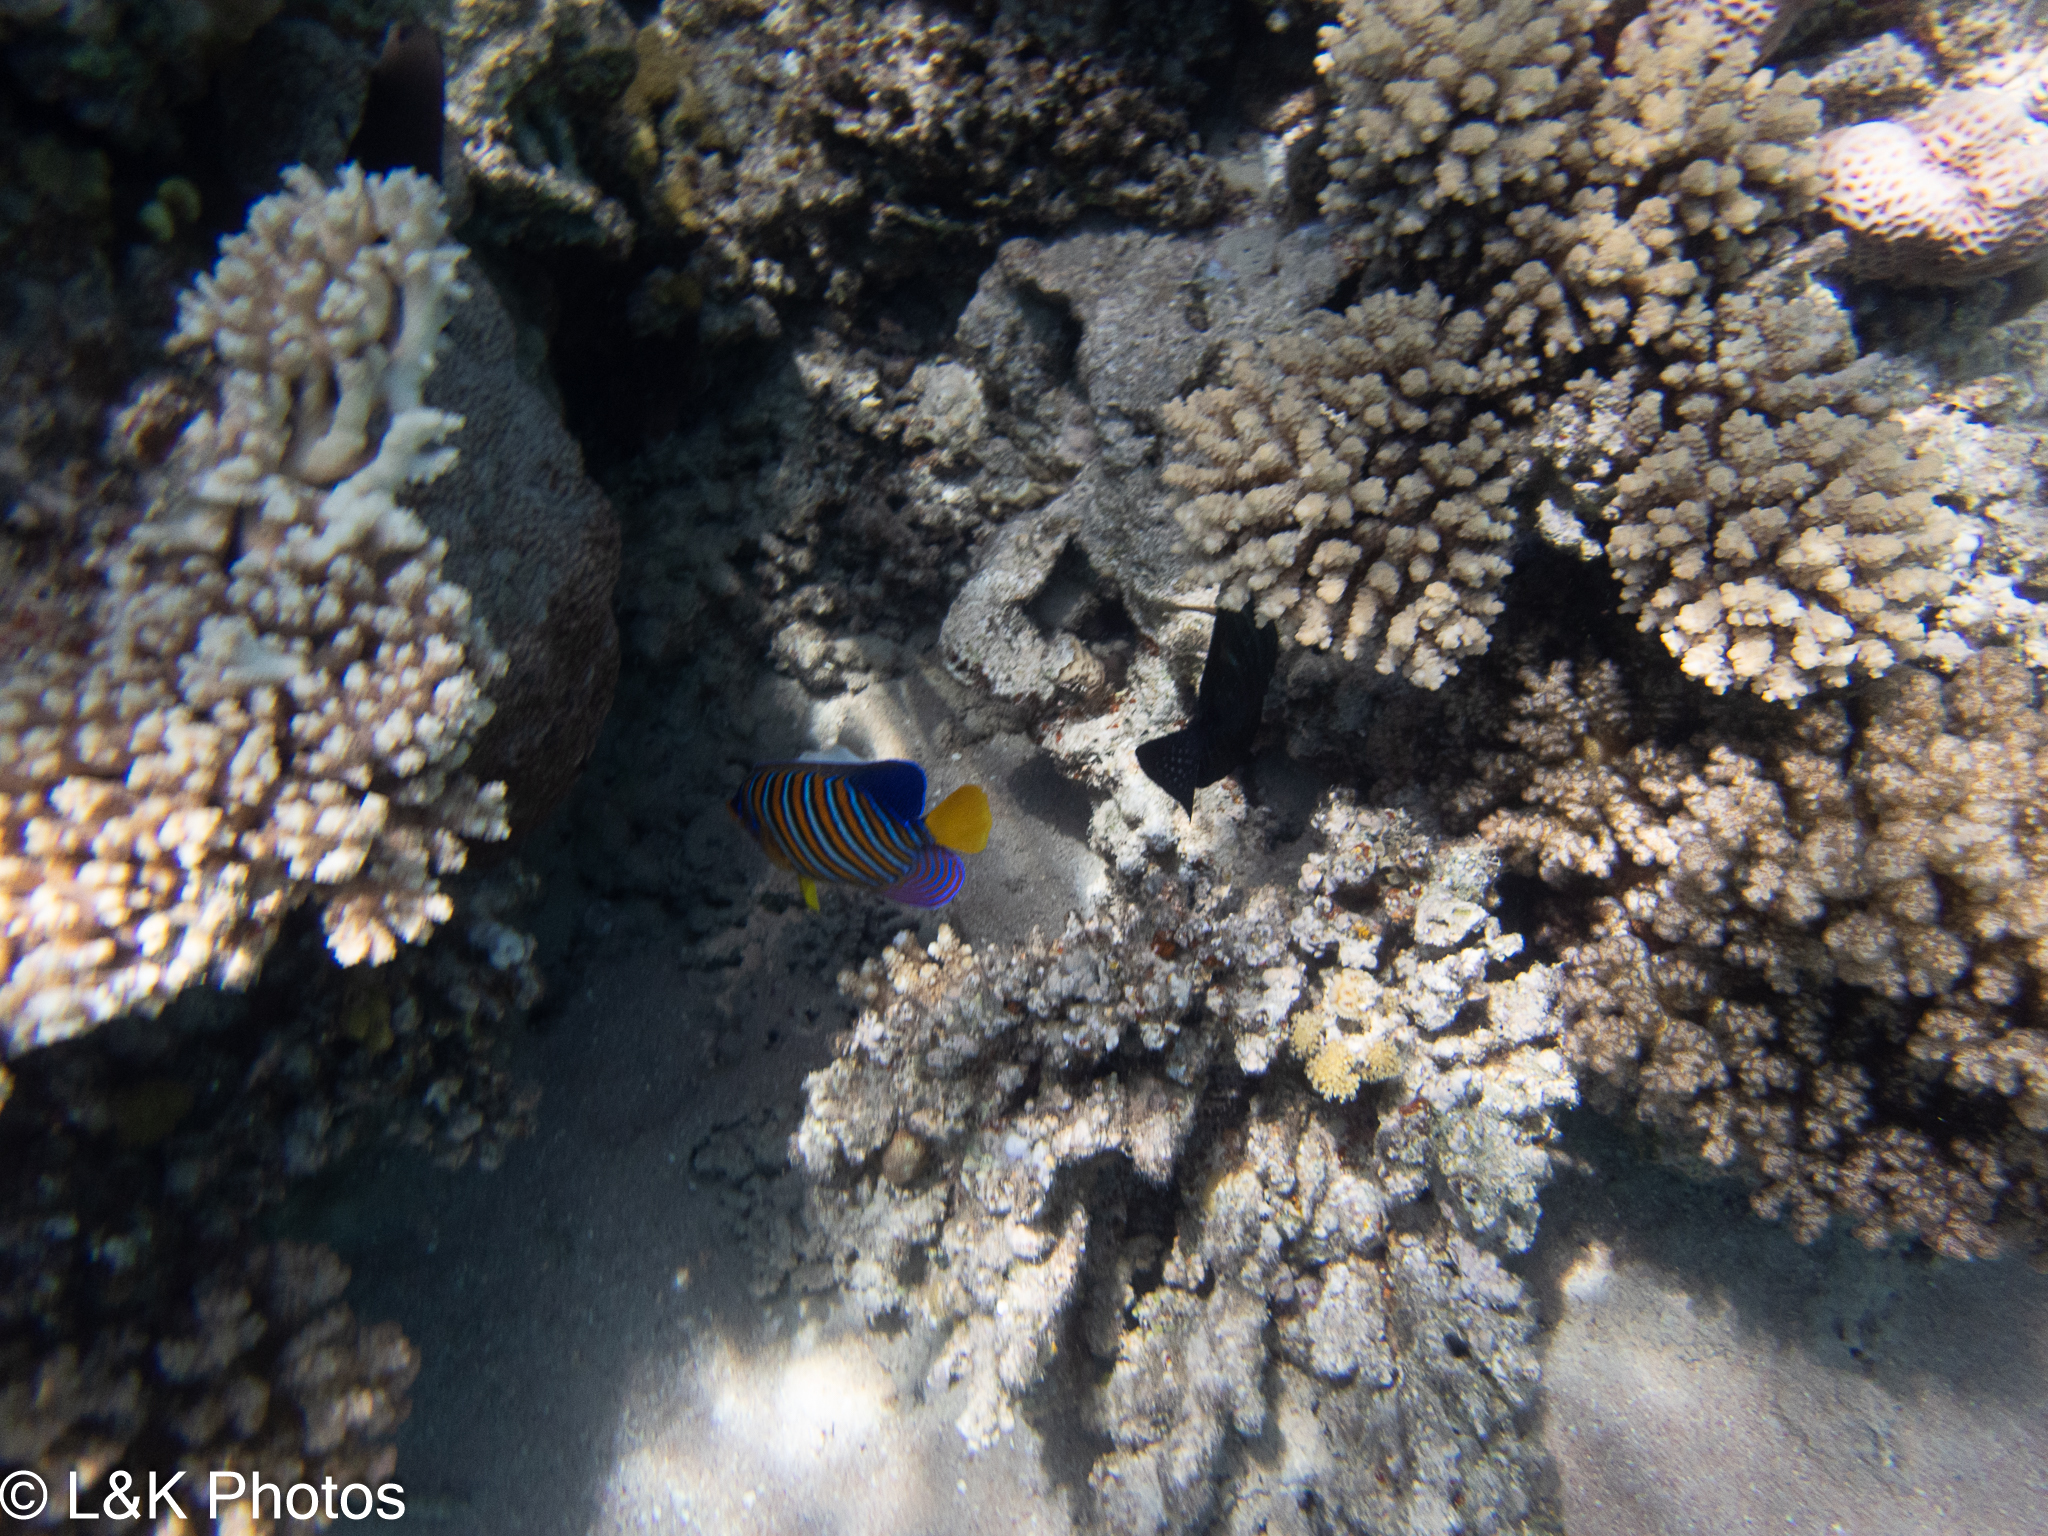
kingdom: Animalia
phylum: Chordata
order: Perciformes
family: Pomacanthidae
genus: Pygoplites
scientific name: Pygoplites diacanthus
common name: Regal angelfish
